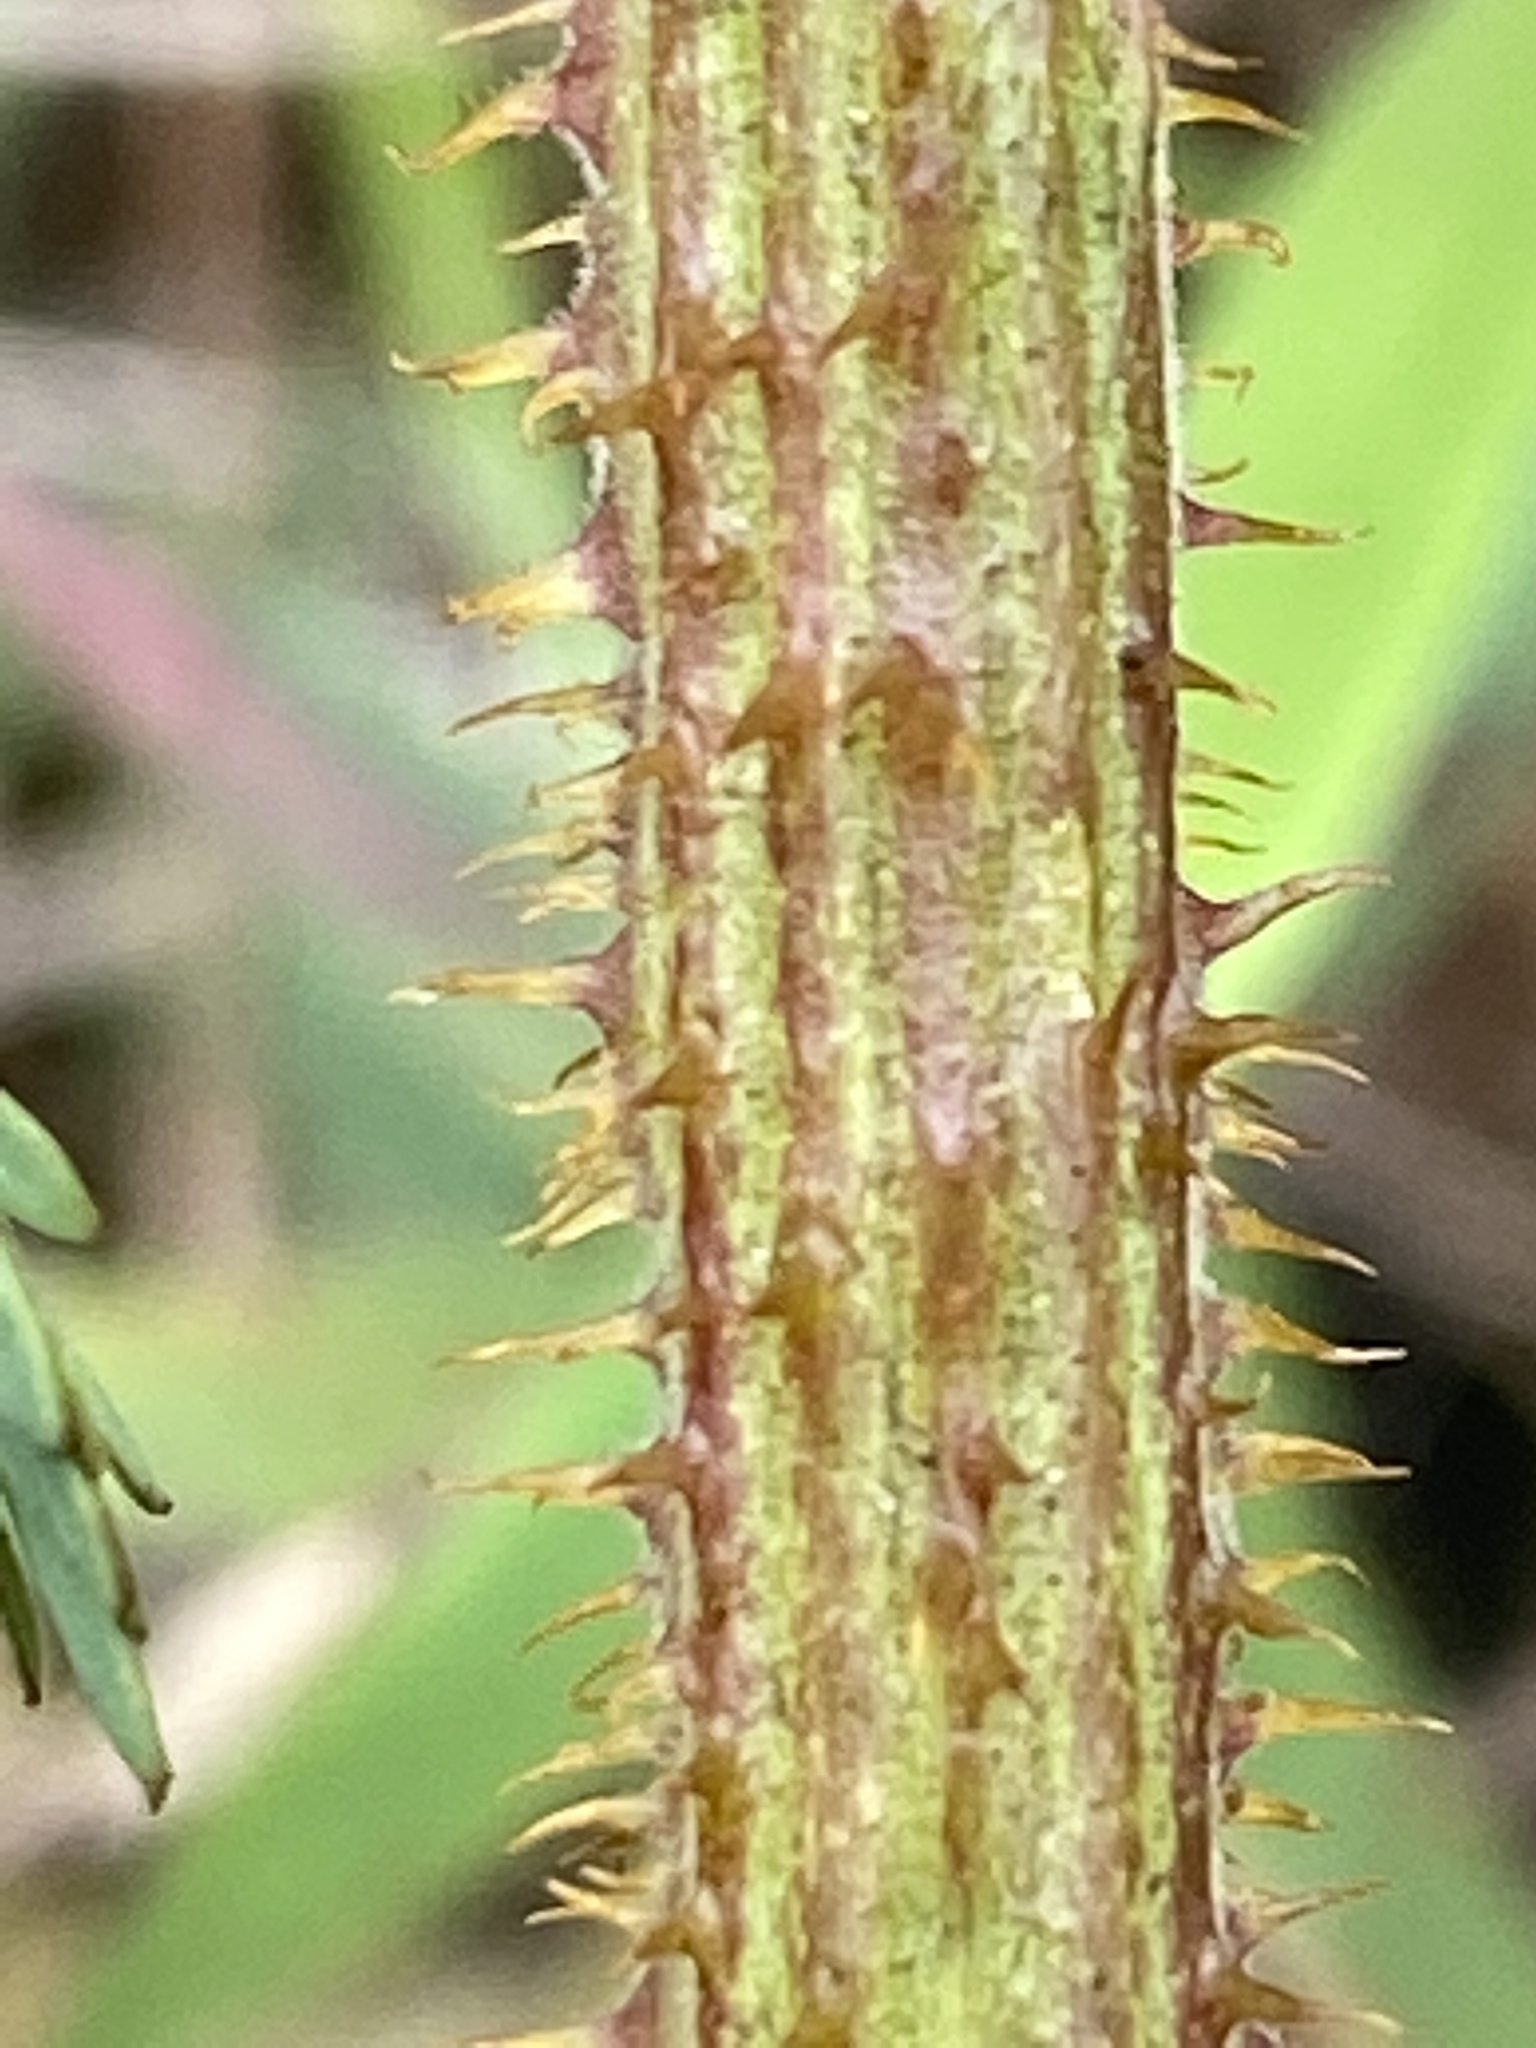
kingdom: Plantae
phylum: Tracheophyta
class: Magnoliopsida
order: Fabales
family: Fabaceae
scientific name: Fabaceae
